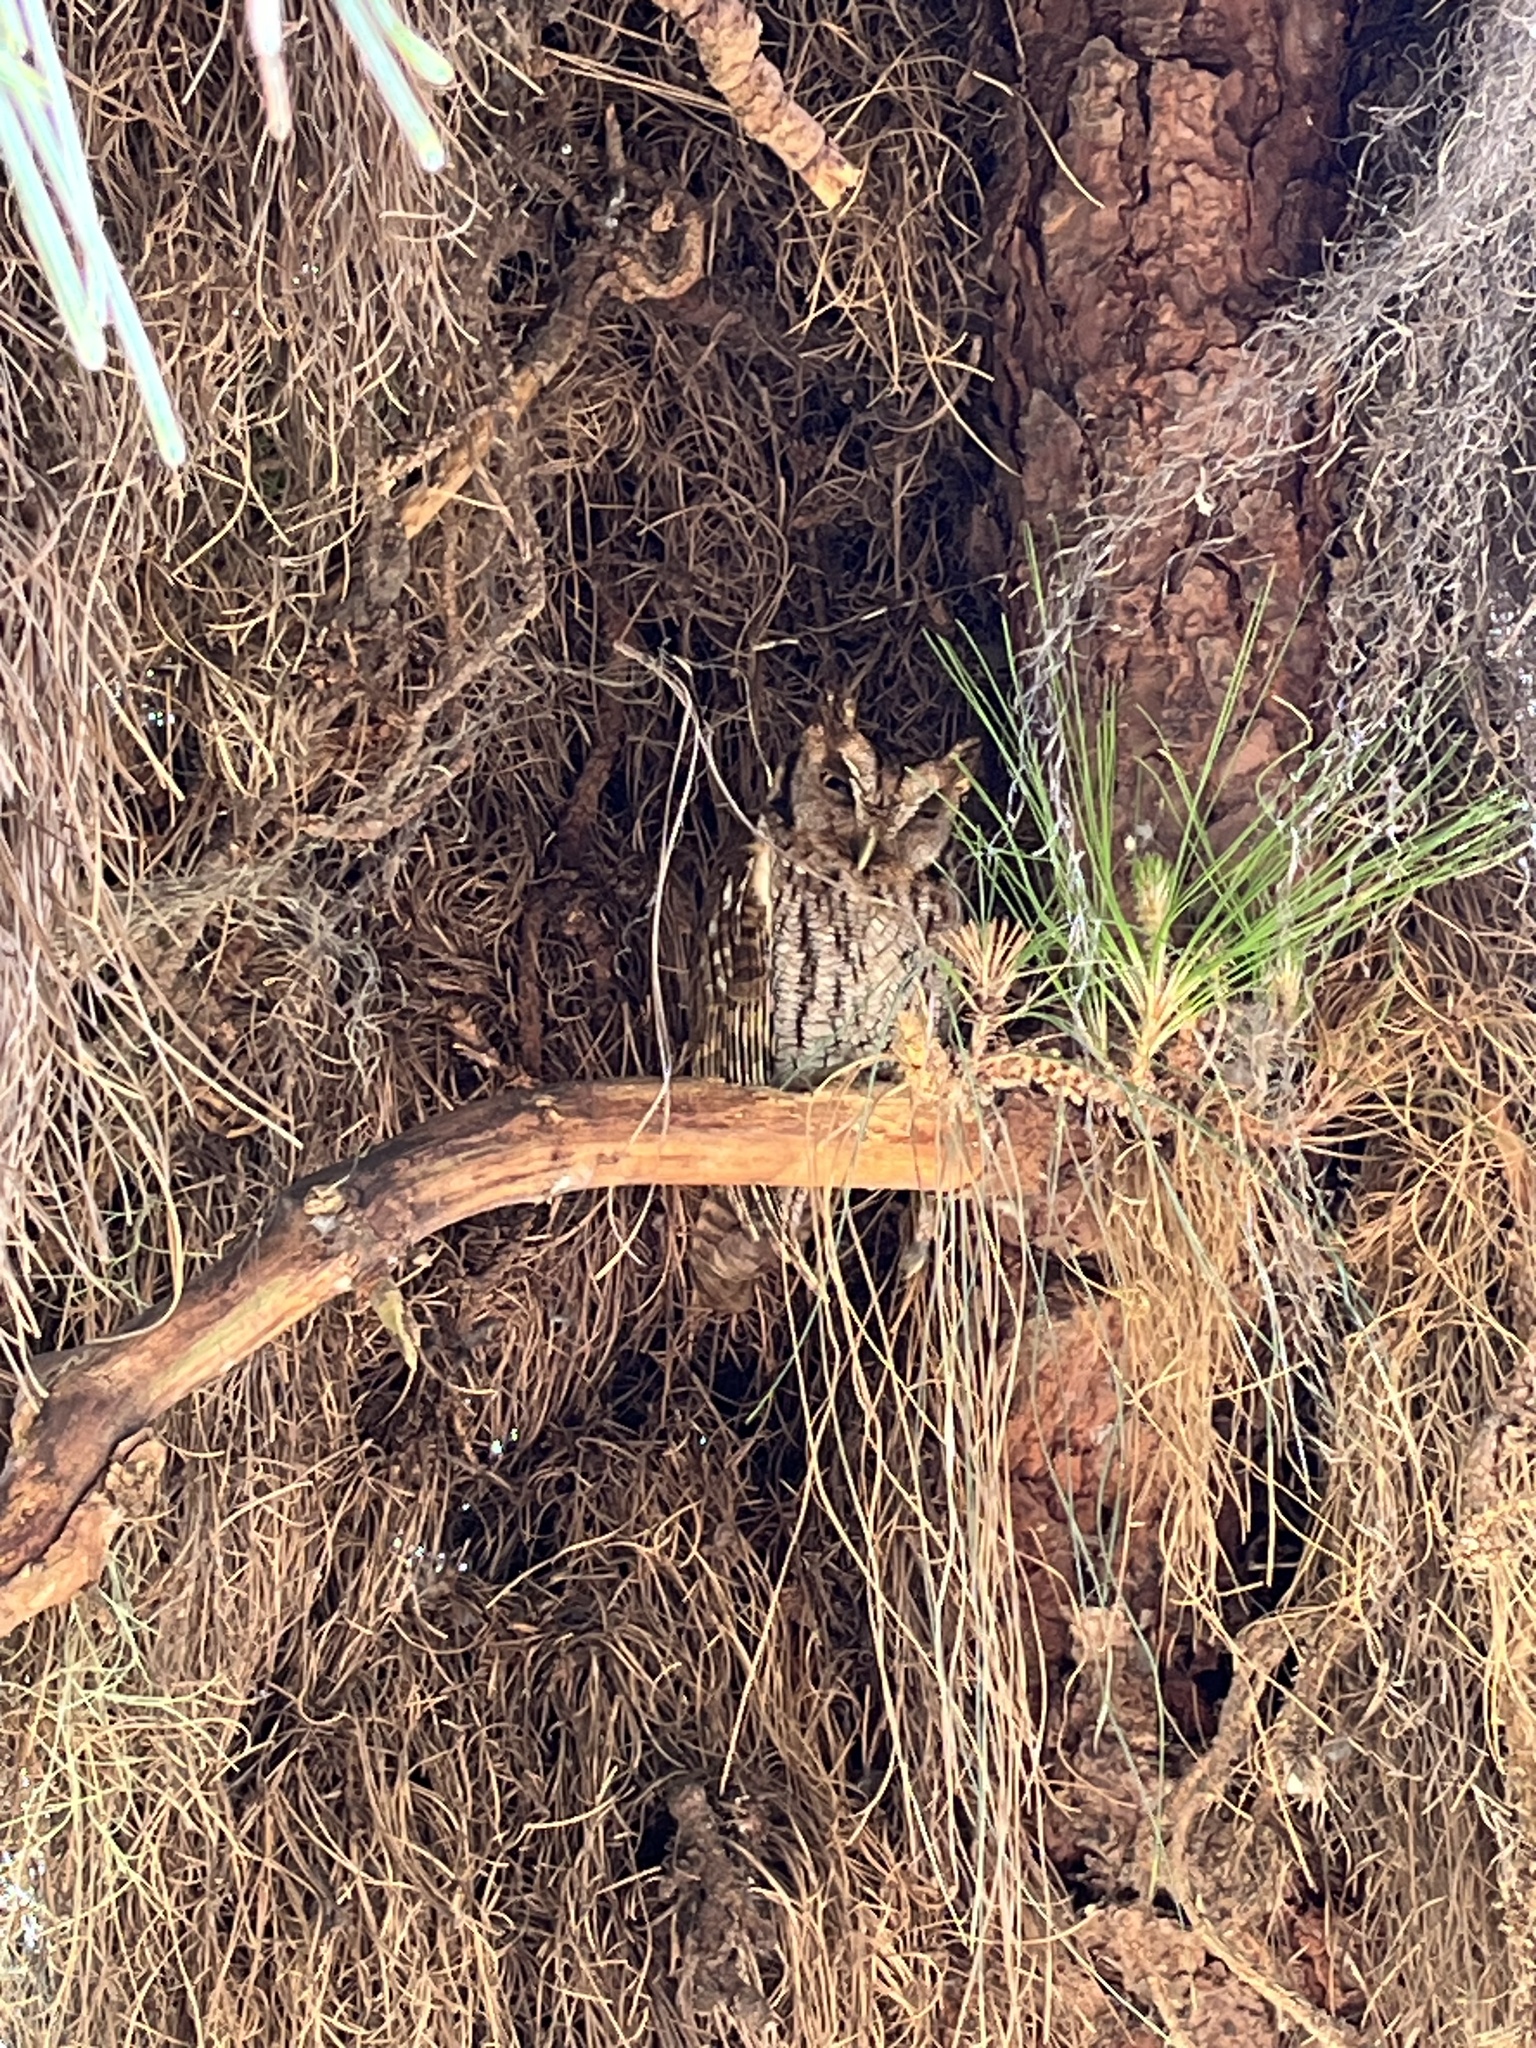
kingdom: Animalia
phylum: Chordata
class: Aves
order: Strigiformes
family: Strigidae
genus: Megascops
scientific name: Megascops choliba
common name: Tropical screech-owl
